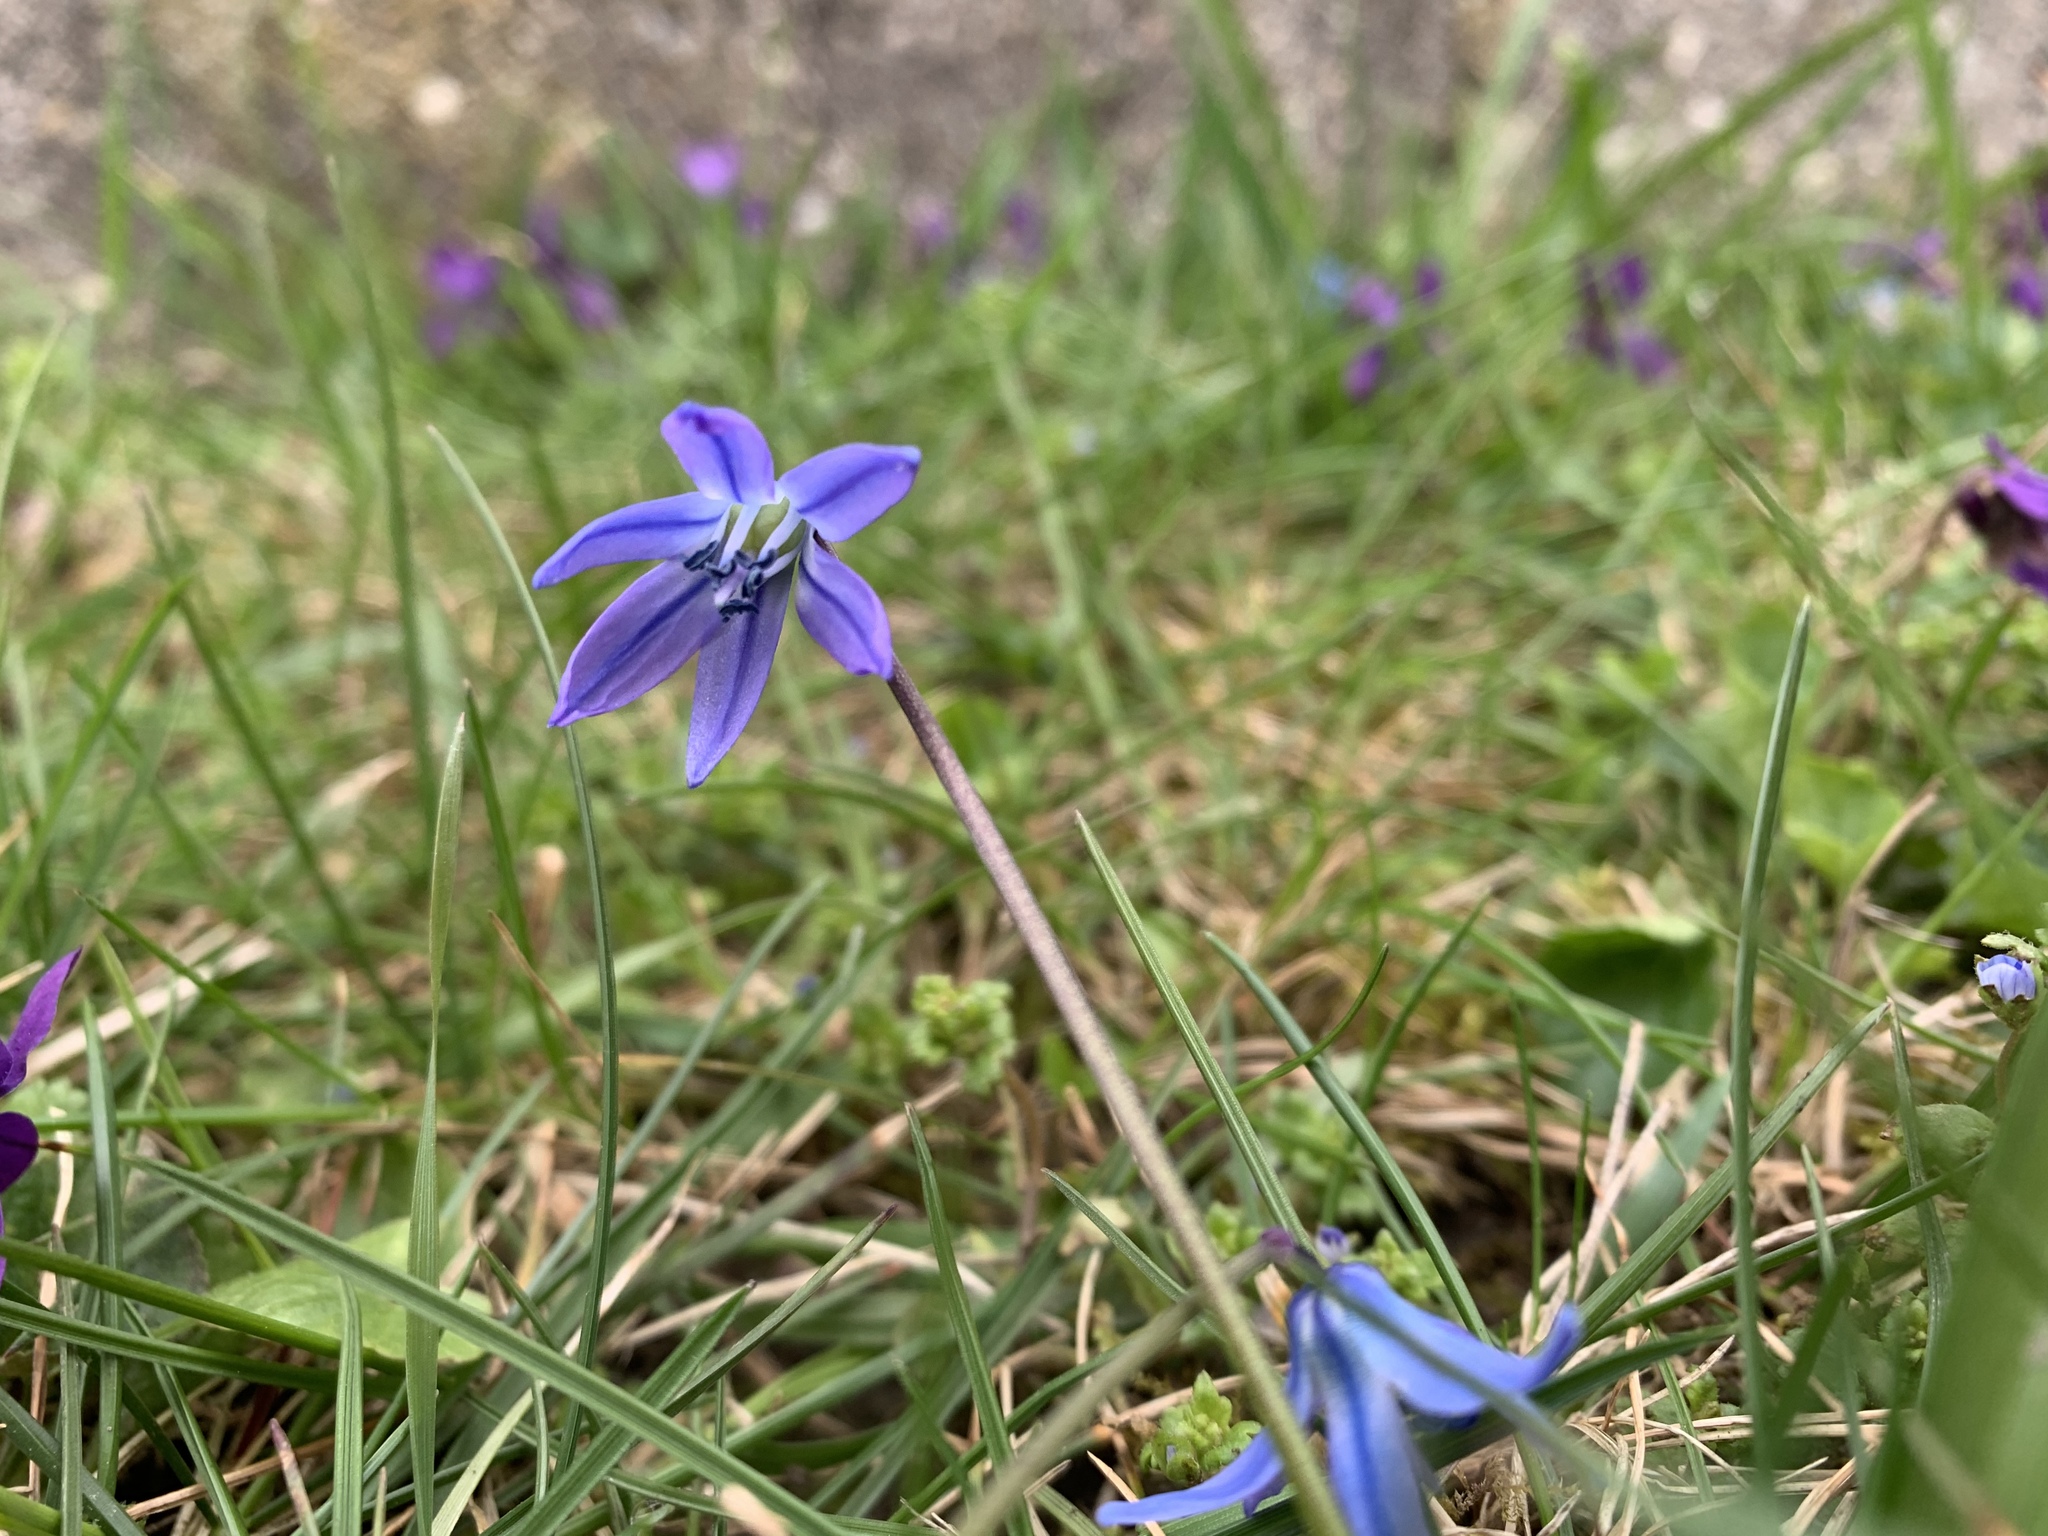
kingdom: Plantae
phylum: Tracheophyta
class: Liliopsida
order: Asparagales
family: Asparagaceae
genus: Scilla
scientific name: Scilla siberica
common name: Siberian squill
